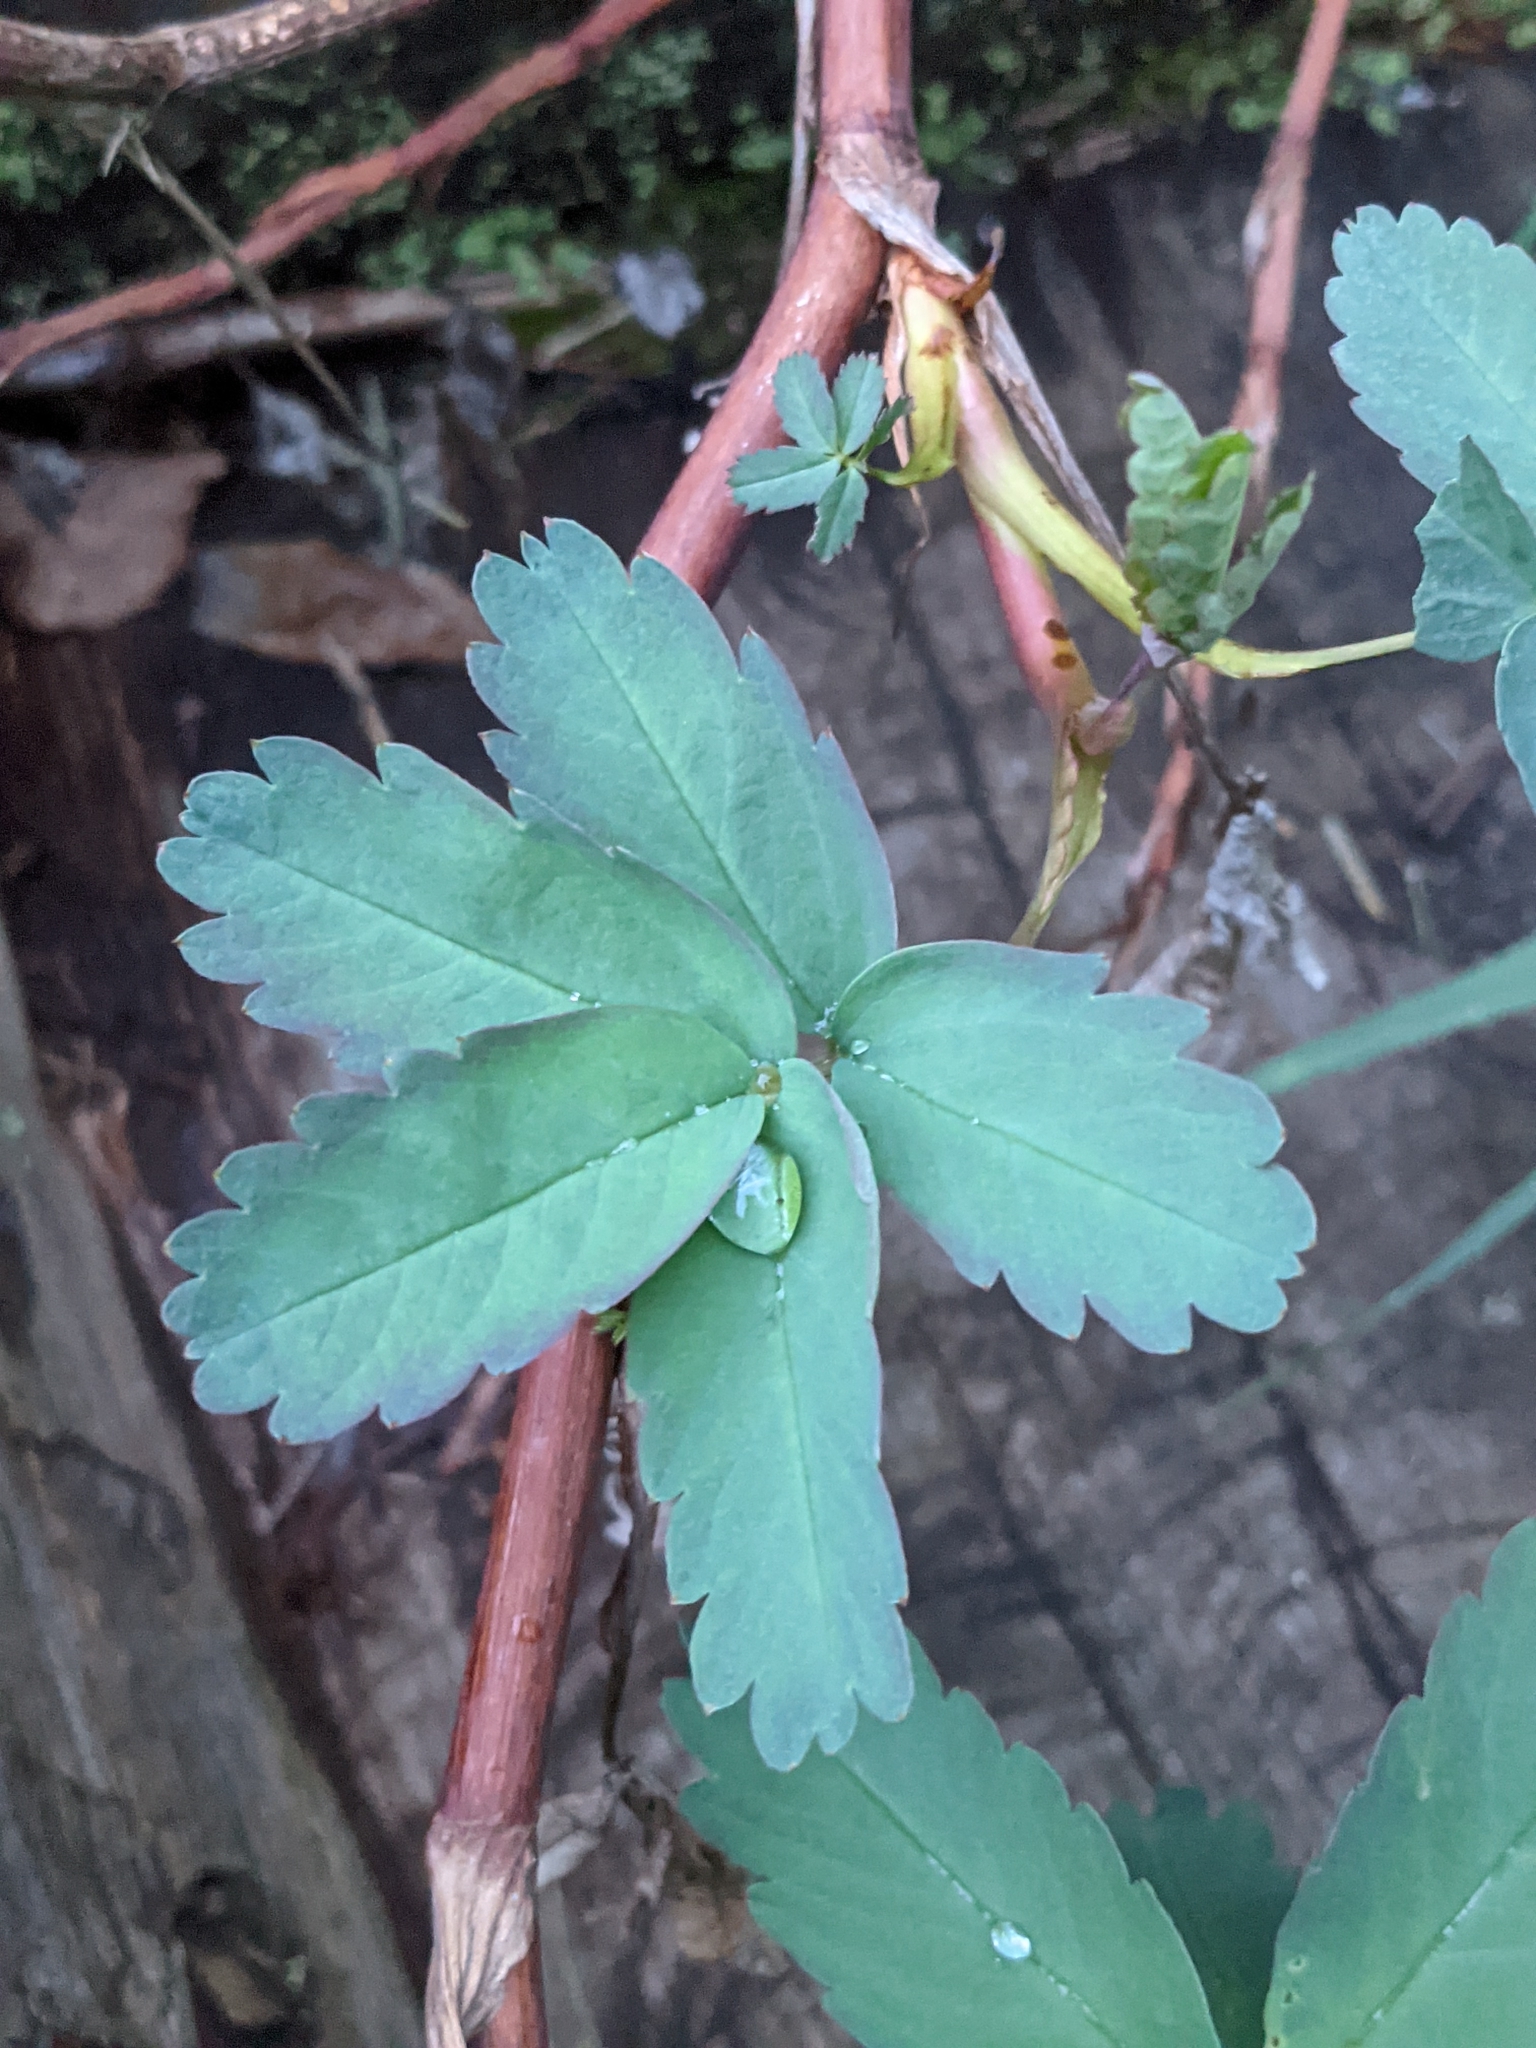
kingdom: Plantae
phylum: Tracheophyta
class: Magnoliopsida
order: Rosales
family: Rosaceae
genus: Comarum
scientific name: Comarum palustre
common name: Marsh cinquefoil
